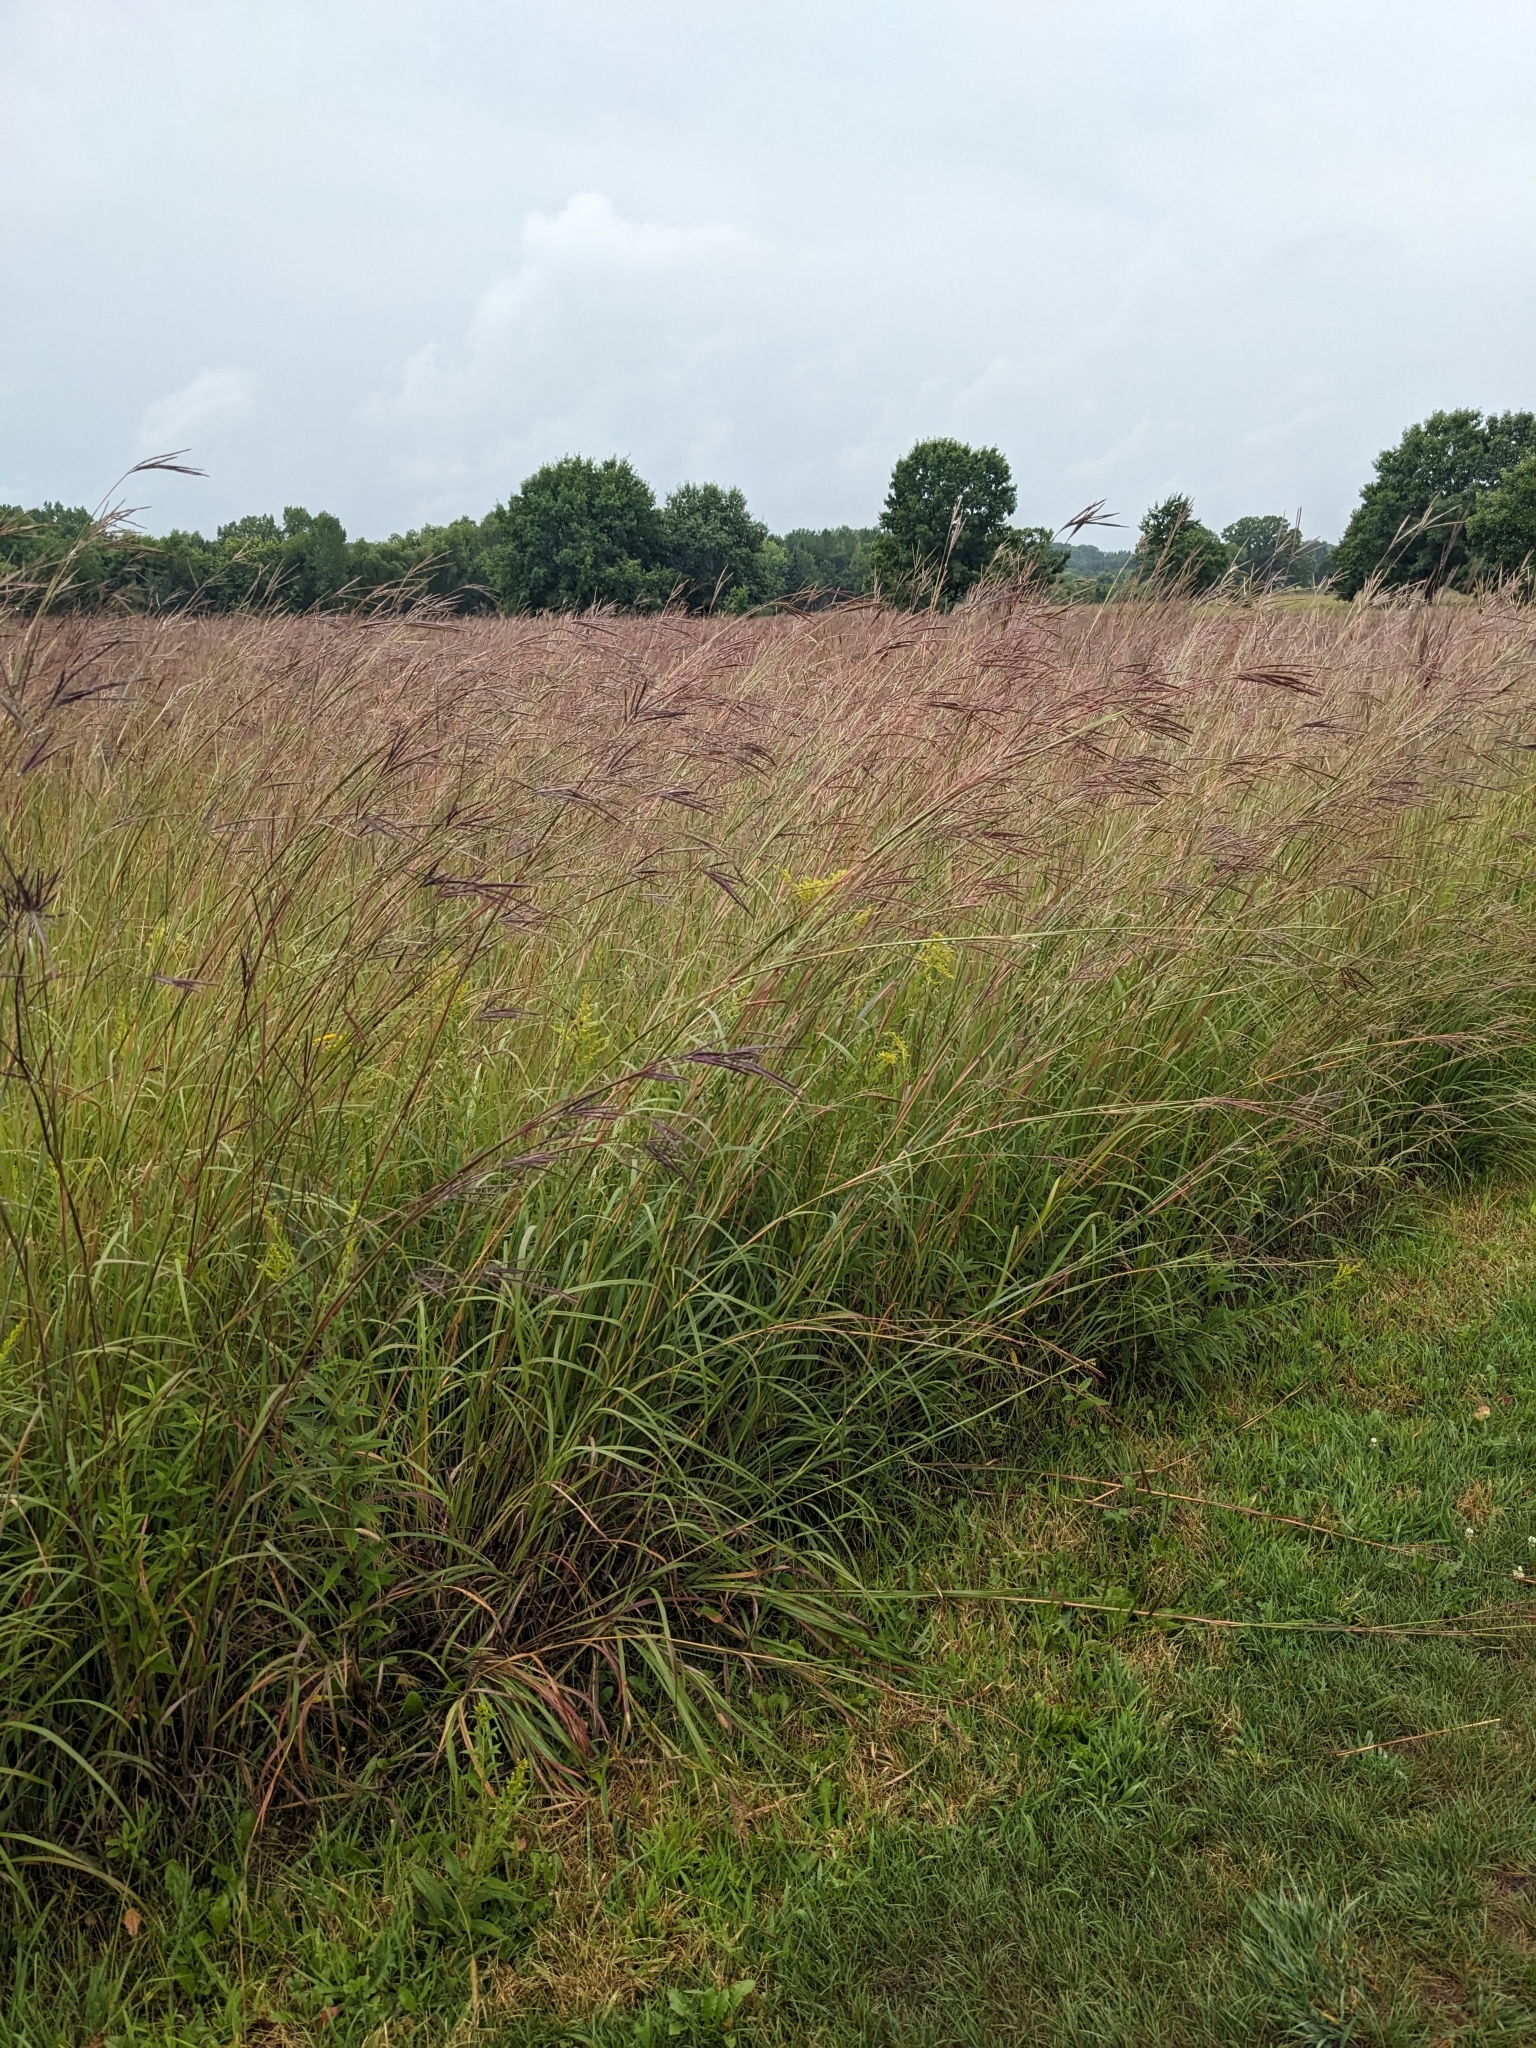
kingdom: Plantae
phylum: Tracheophyta
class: Liliopsida
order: Poales
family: Poaceae
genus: Andropogon
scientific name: Andropogon gerardi
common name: Big bluestem
